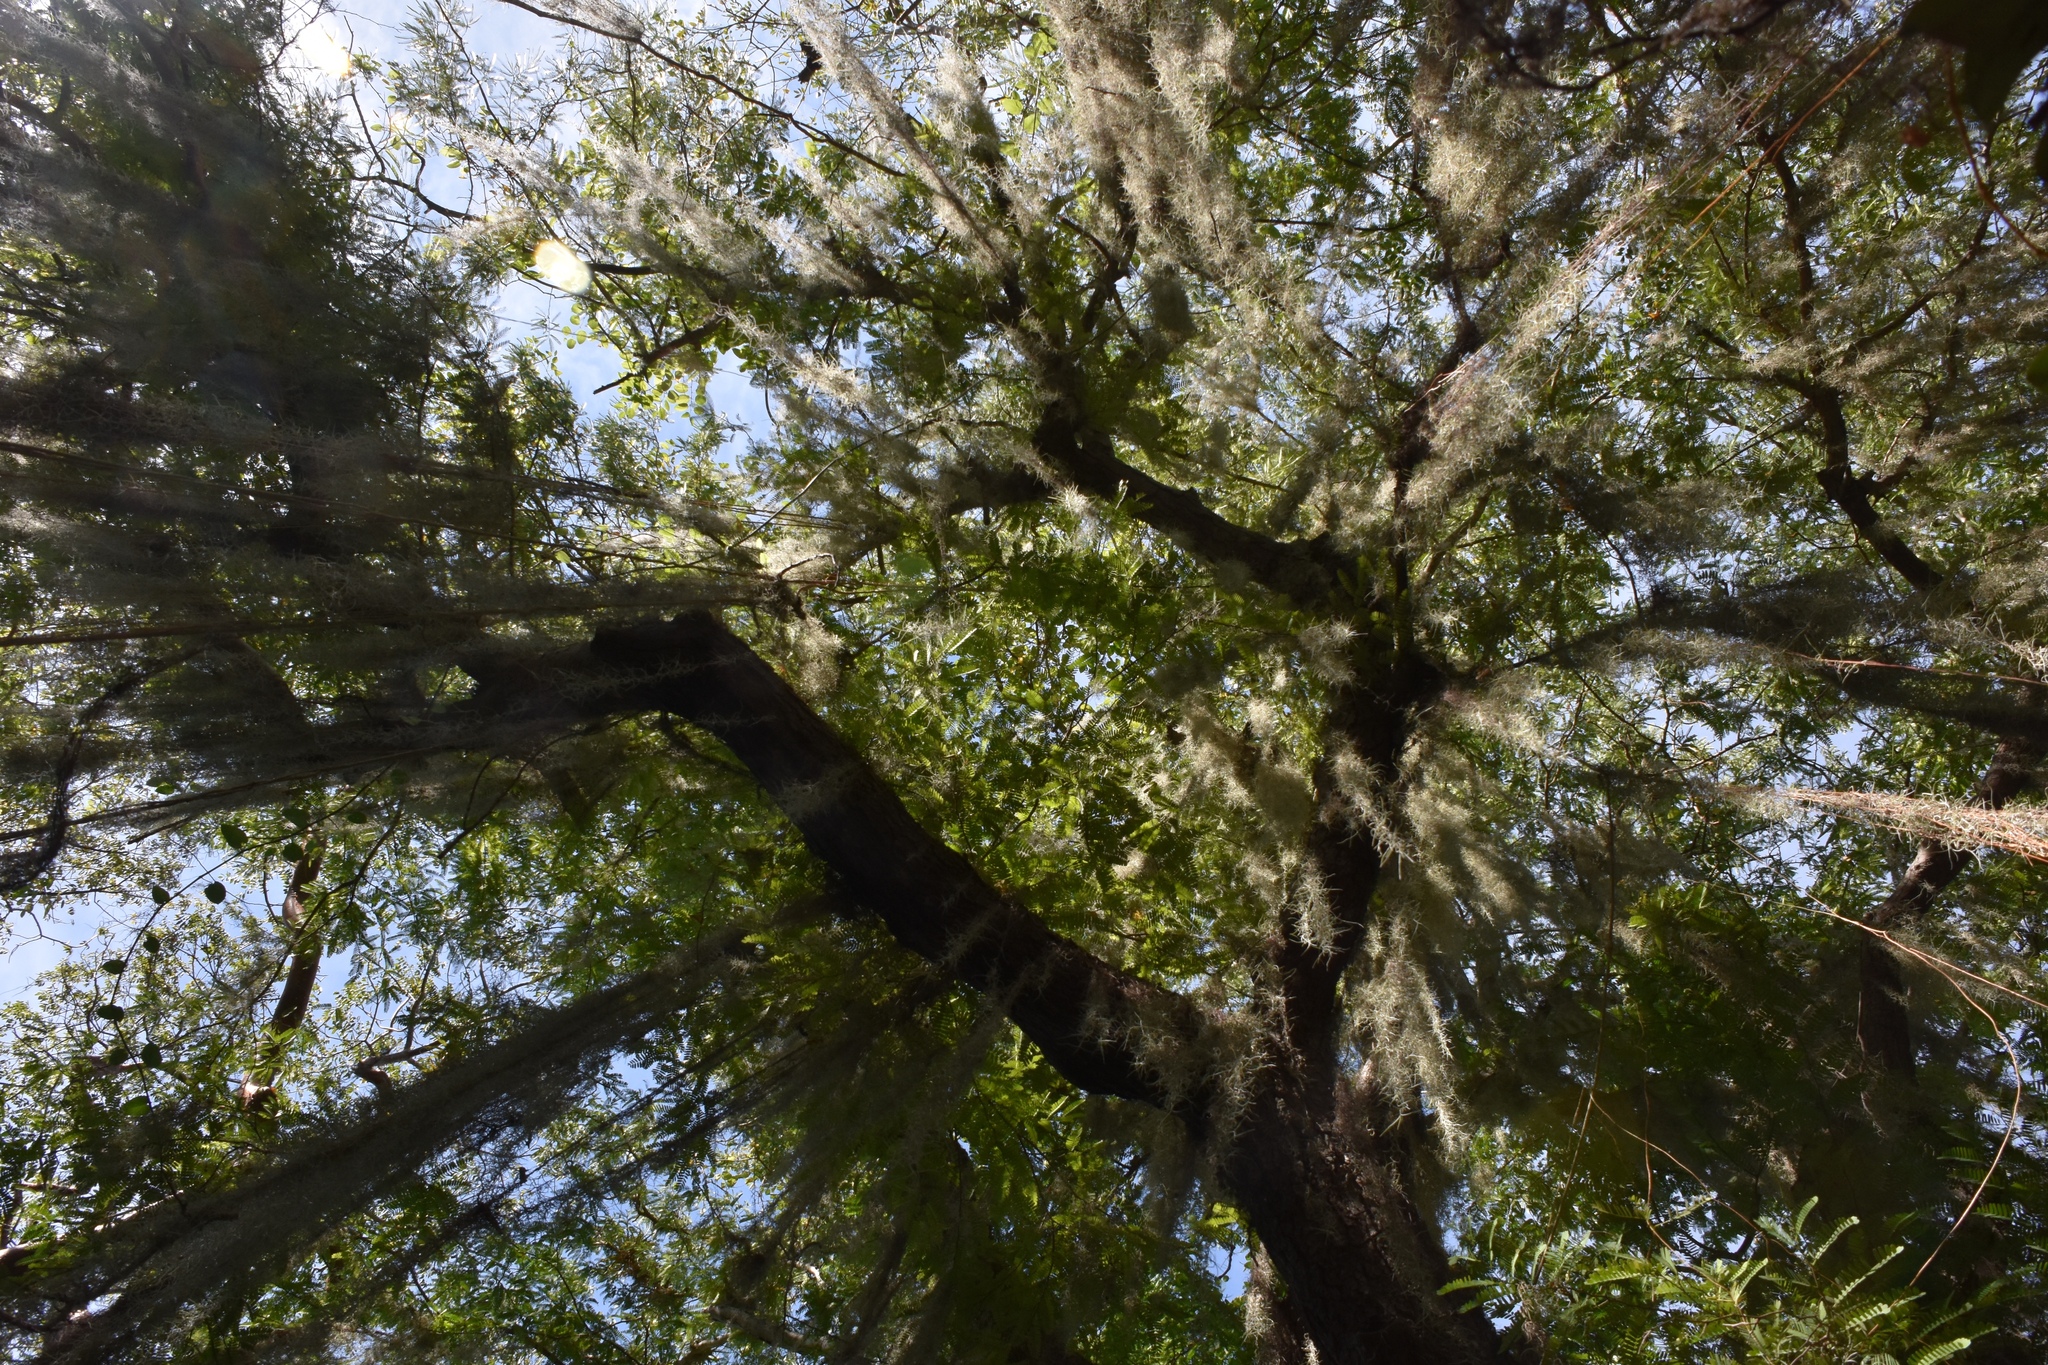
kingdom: Plantae
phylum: Tracheophyta
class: Liliopsida
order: Poales
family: Bromeliaceae
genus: Tillandsia
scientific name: Tillandsia usneoides
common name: Spanish moss
